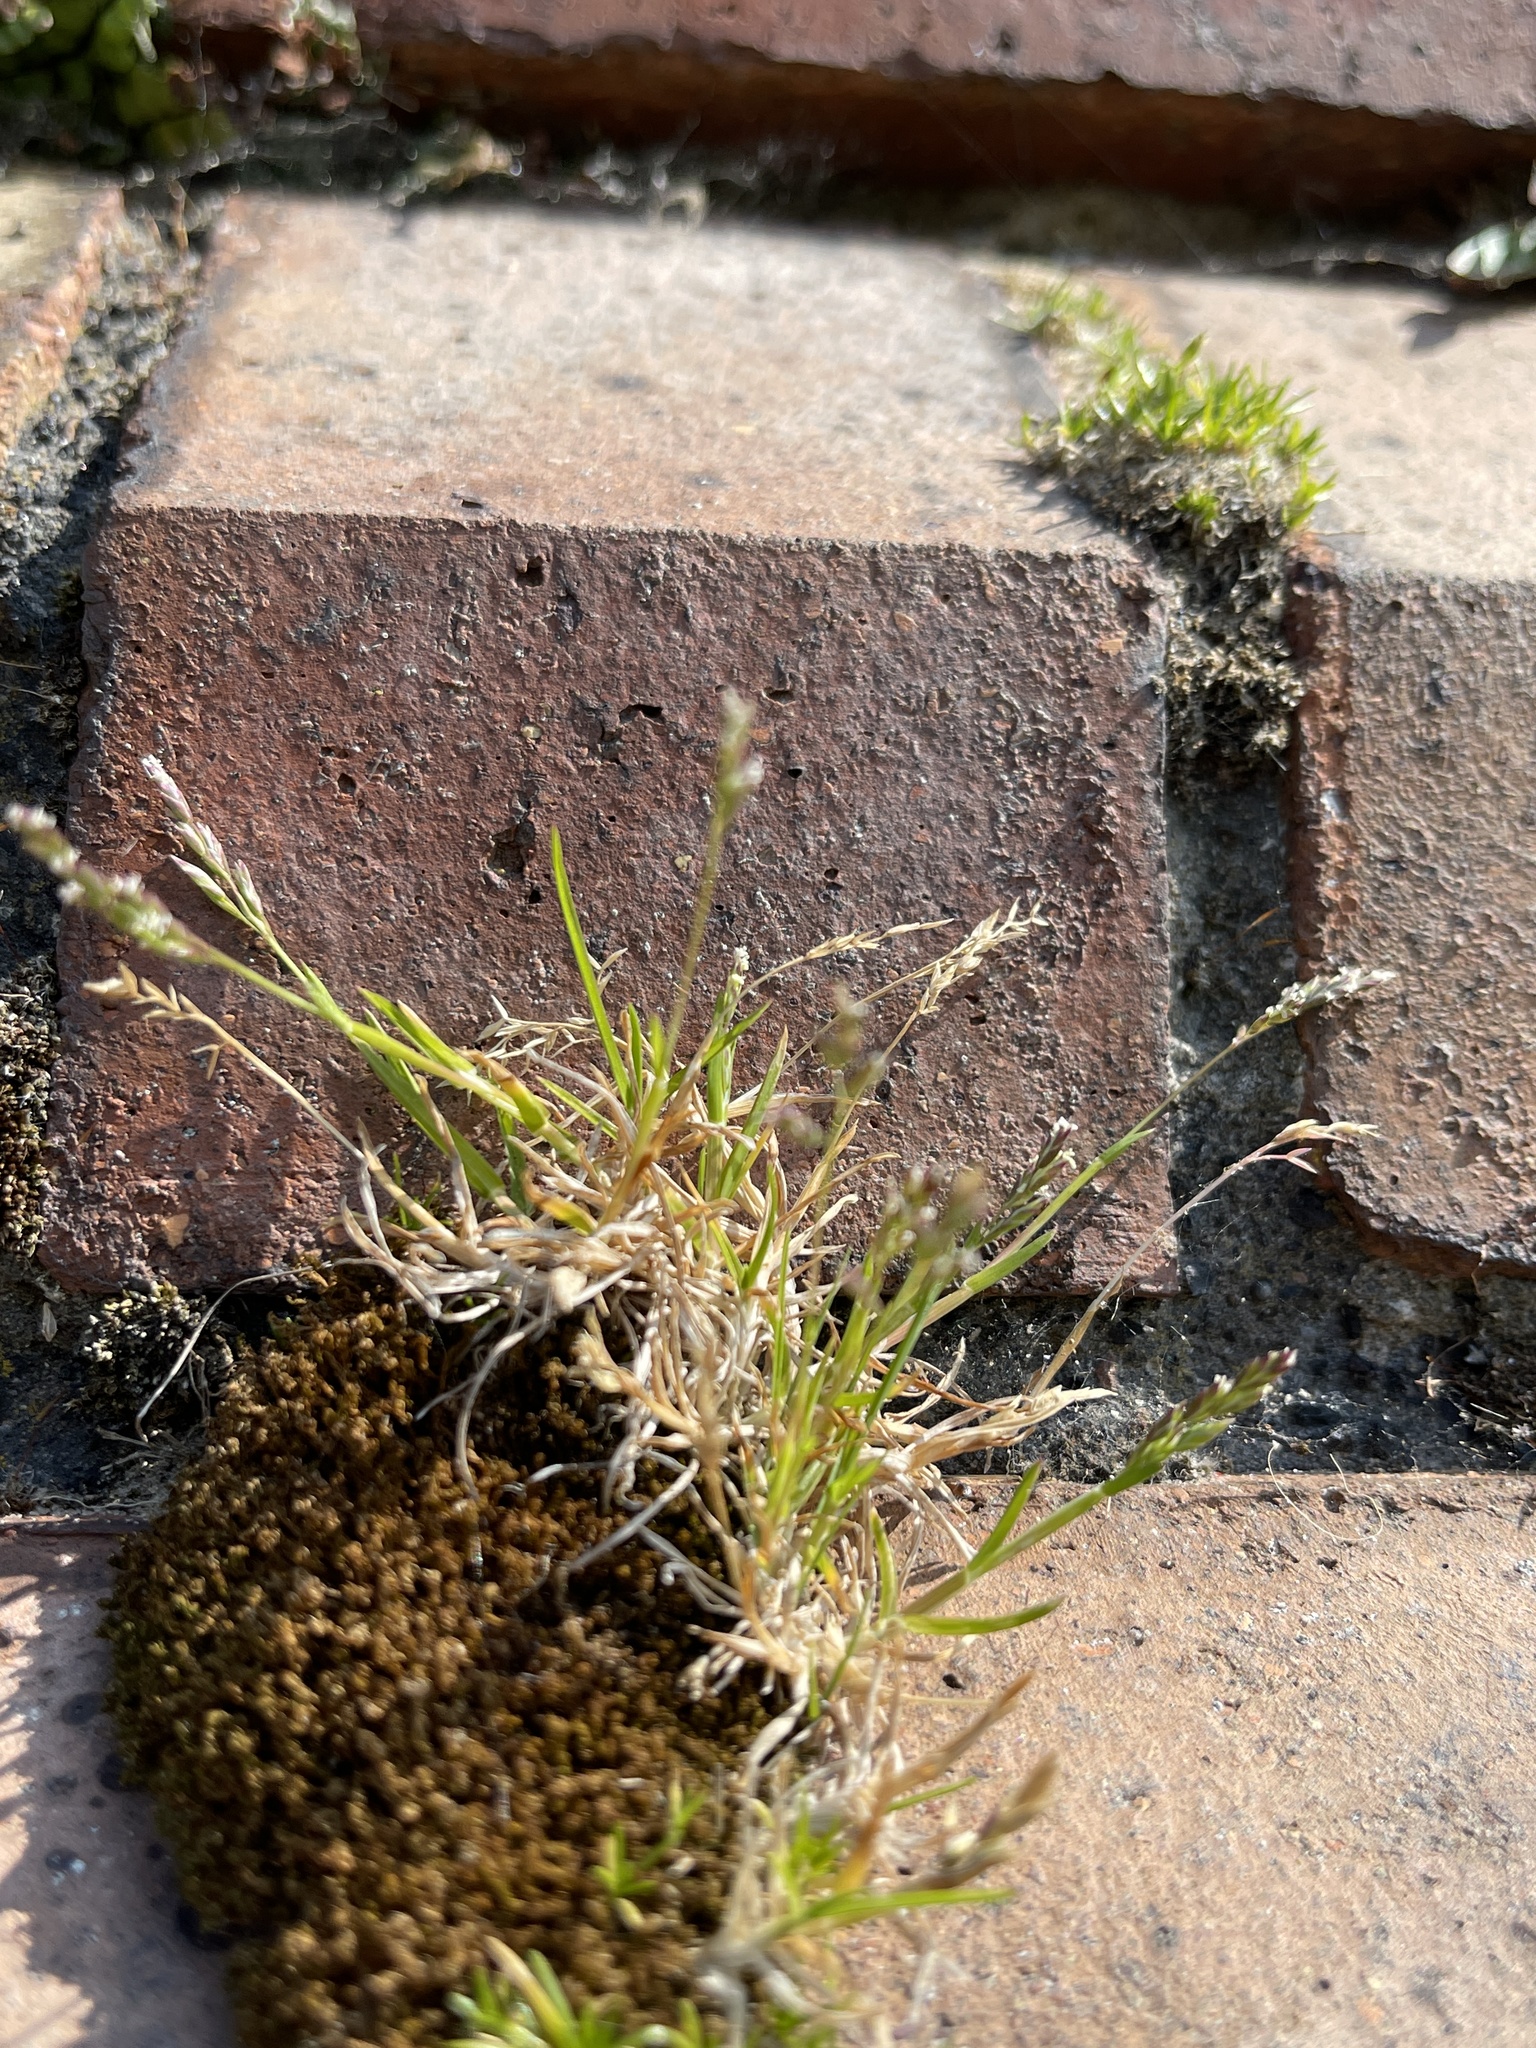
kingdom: Plantae
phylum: Tracheophyta
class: Liliopsida
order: Poales
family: Poaceae
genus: Poa
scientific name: Poa annua
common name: Annual bluegrass
